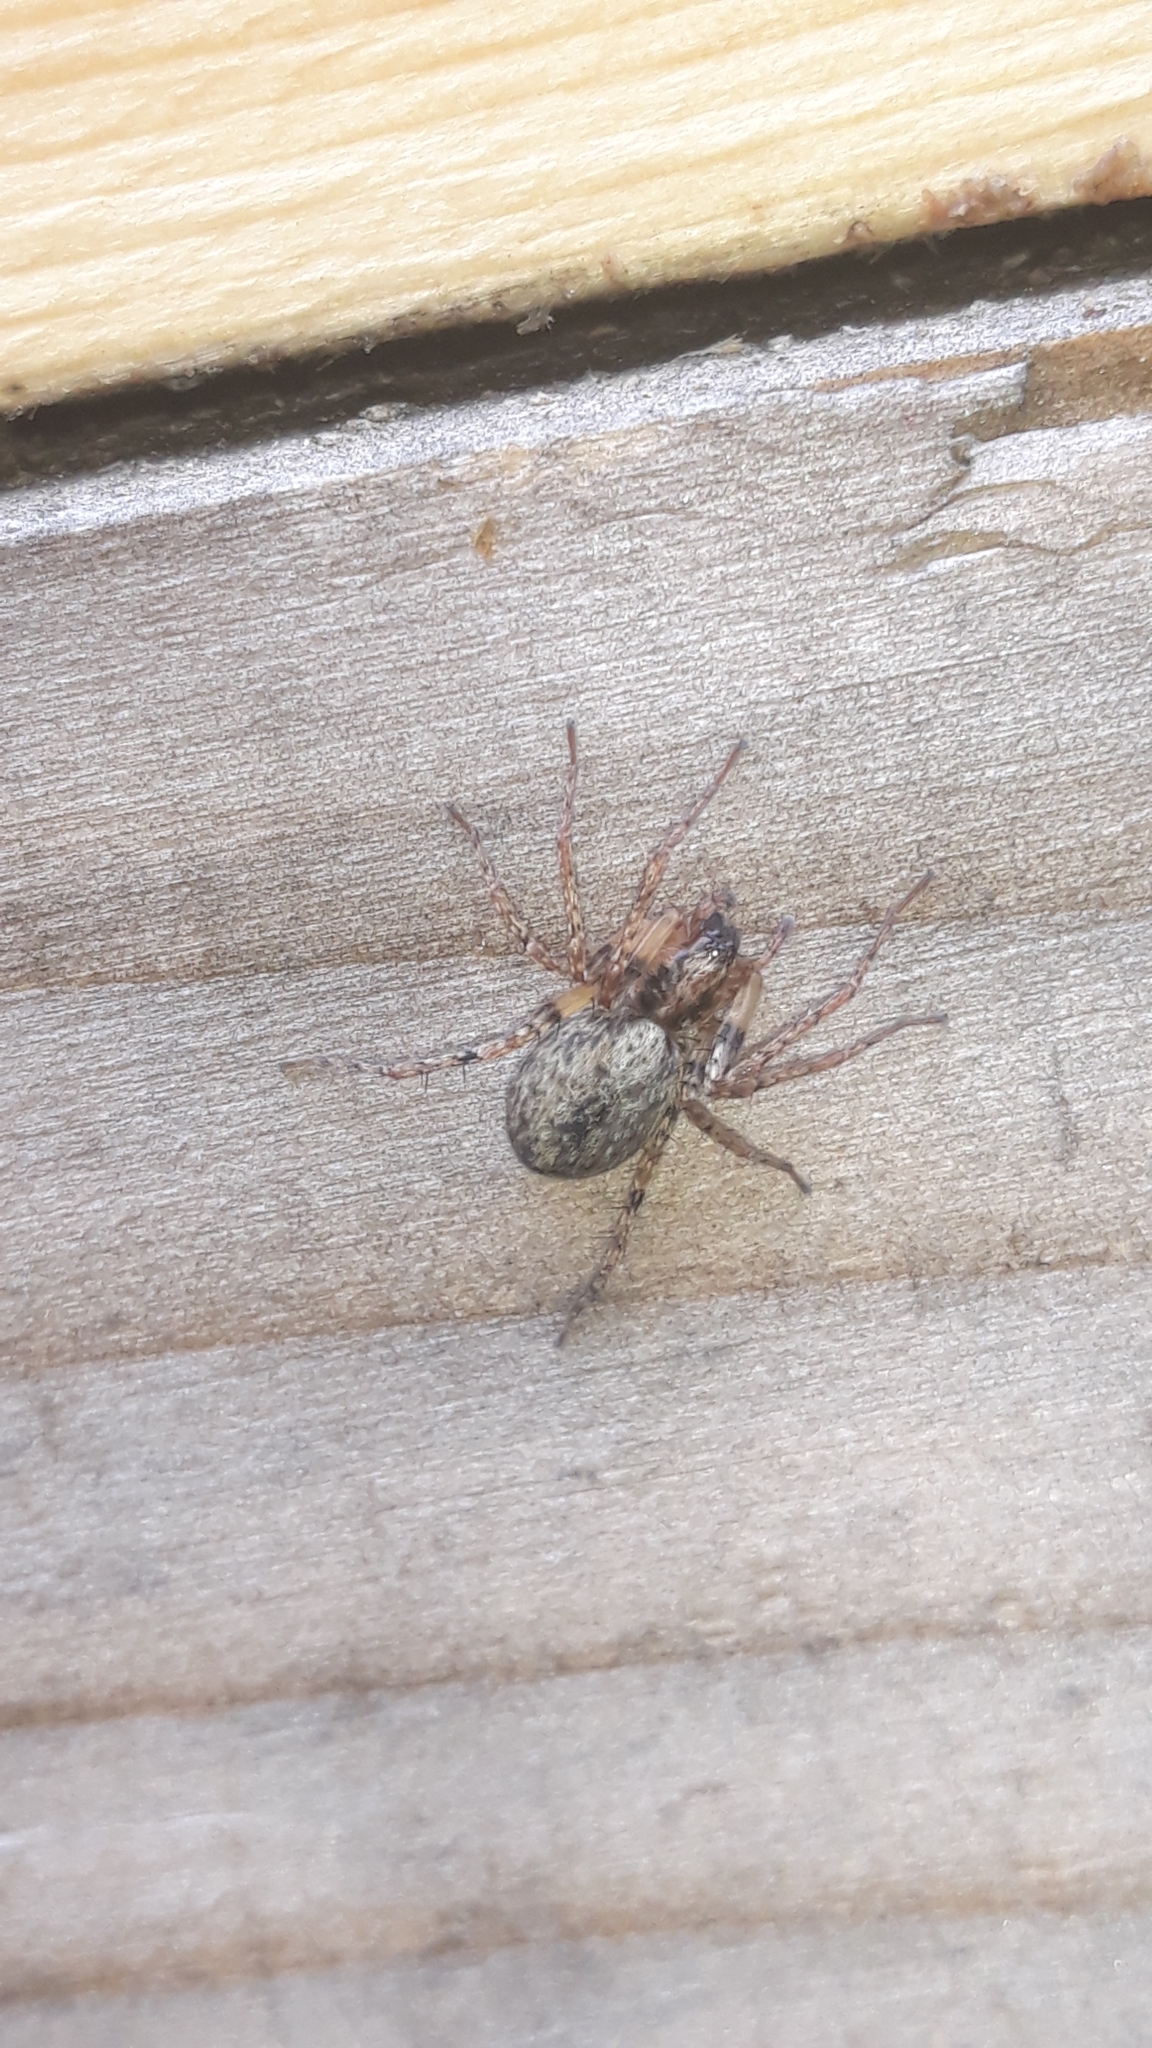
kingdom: Animalia
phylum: Arthropoda
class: Arachnida
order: Araneae
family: Anyphaenidae
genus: Anyphaena
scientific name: Anyphaena accentuata
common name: Buzzing spider
